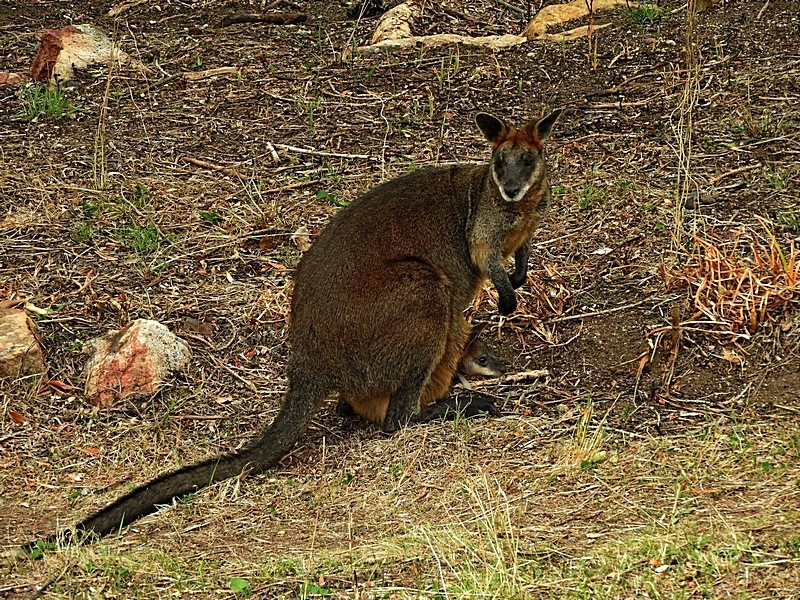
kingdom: Animalia
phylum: Chordata
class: Mammalia
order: Diprotodontia
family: Macropodidae
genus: Wallabia
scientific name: Wallabia bicolor
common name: Swamp wallaby
